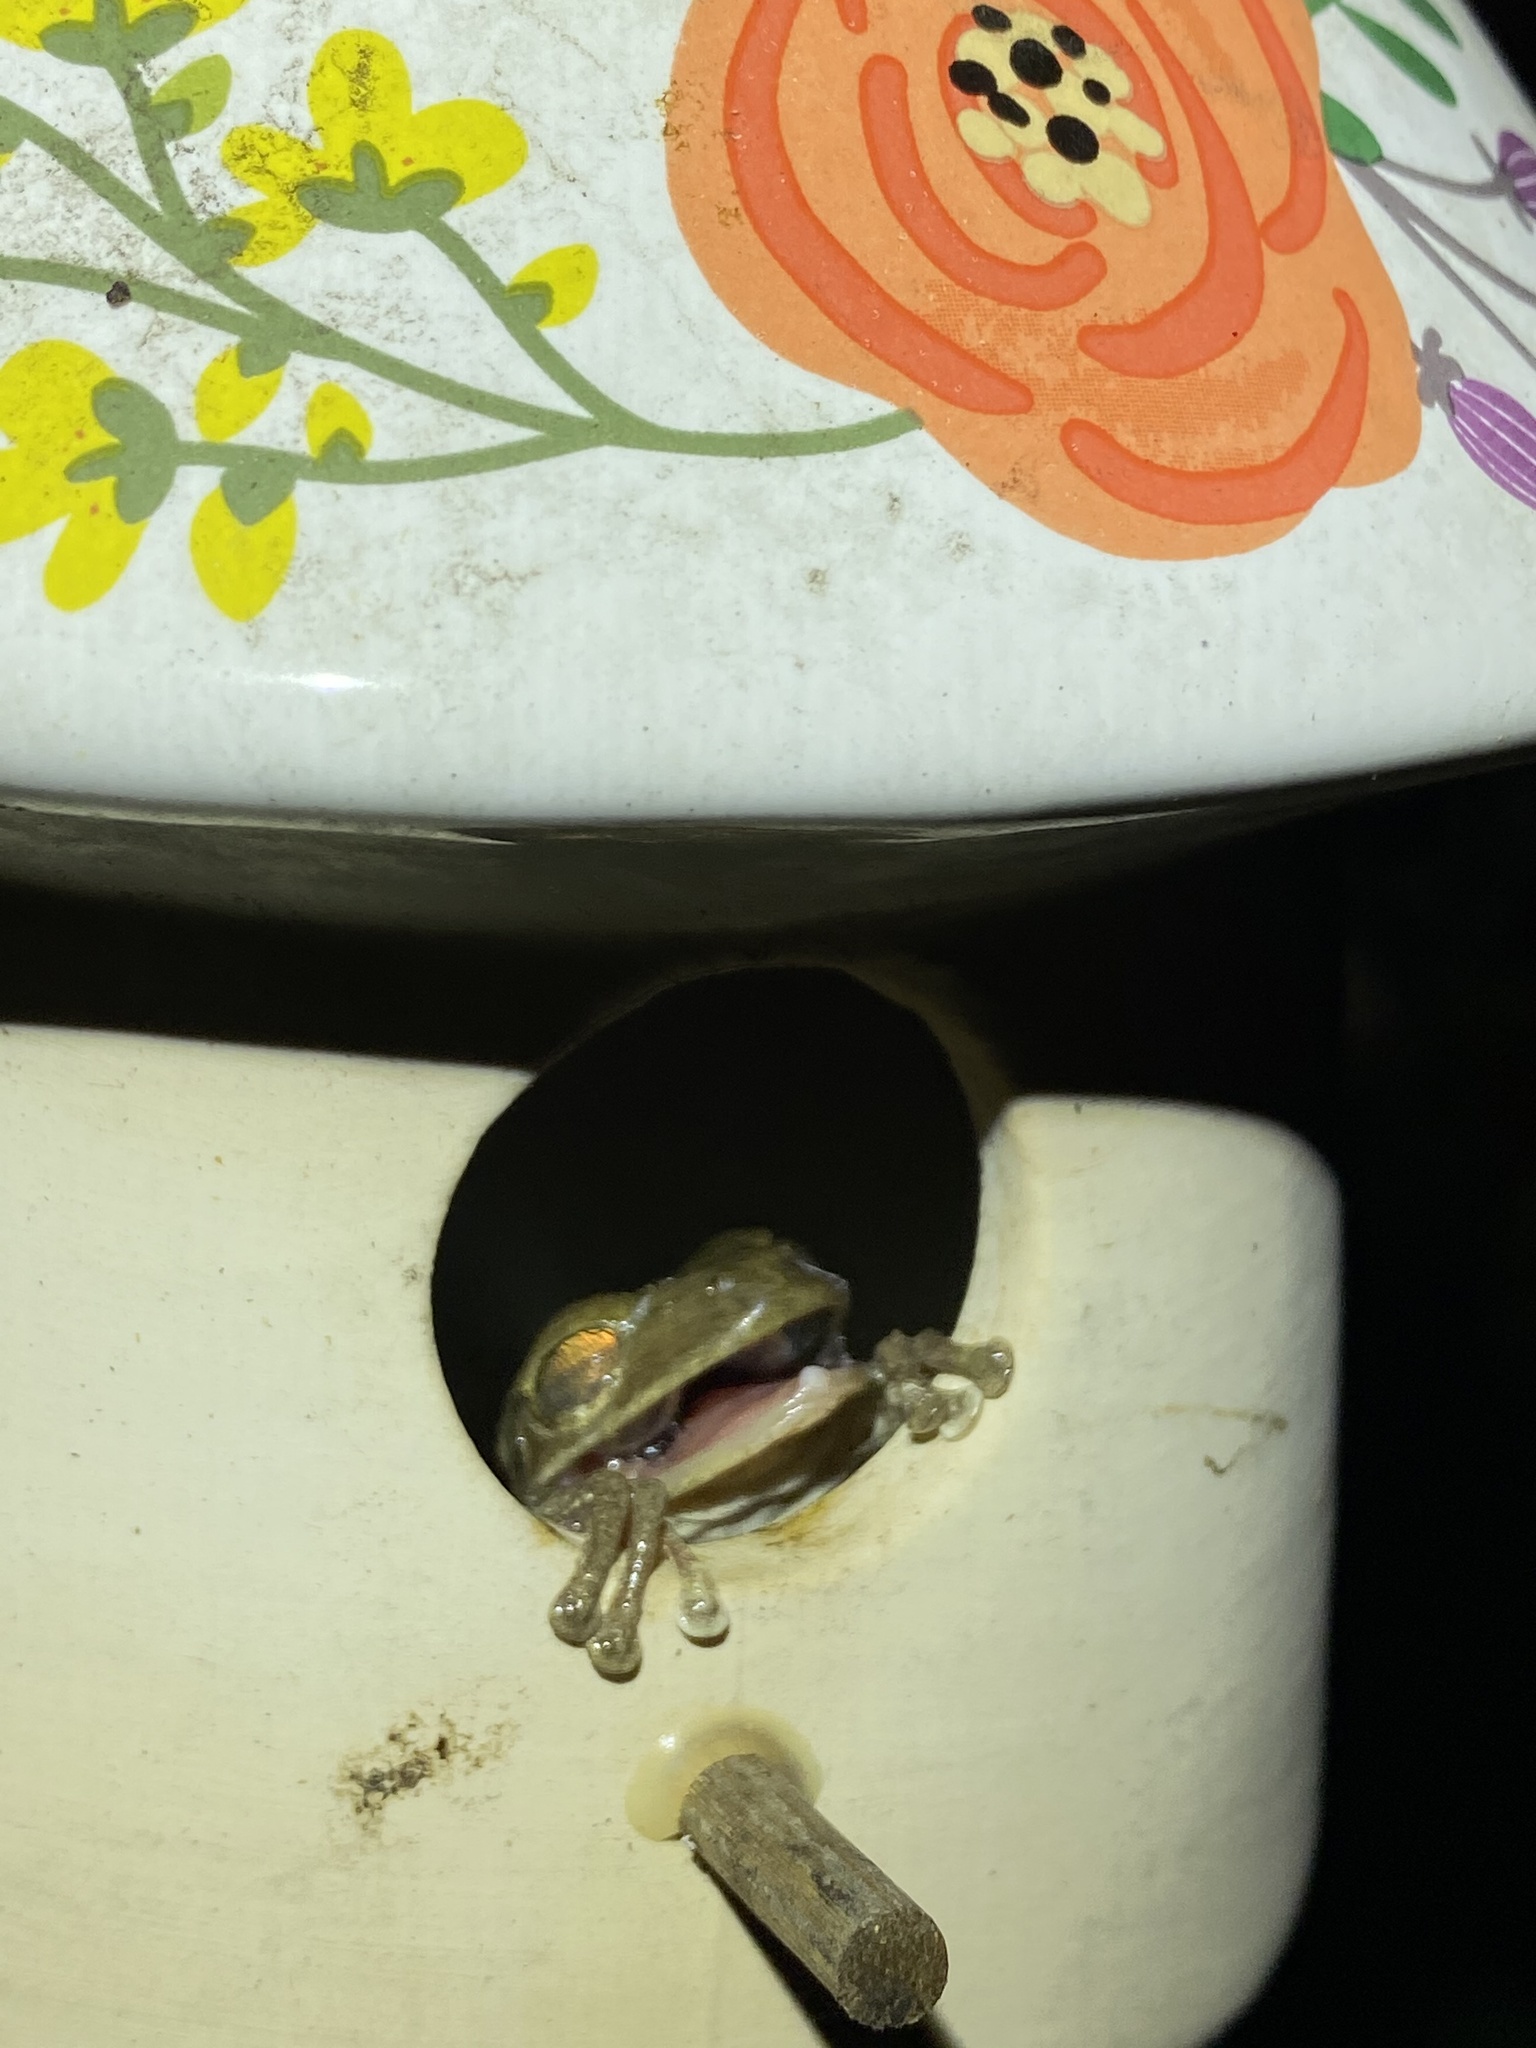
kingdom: Animalia
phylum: Chordata
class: Amphibia
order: Anura
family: Hylidae
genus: Osteopilus
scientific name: Osteopilus septentrionalis
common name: Cuban treefrog
